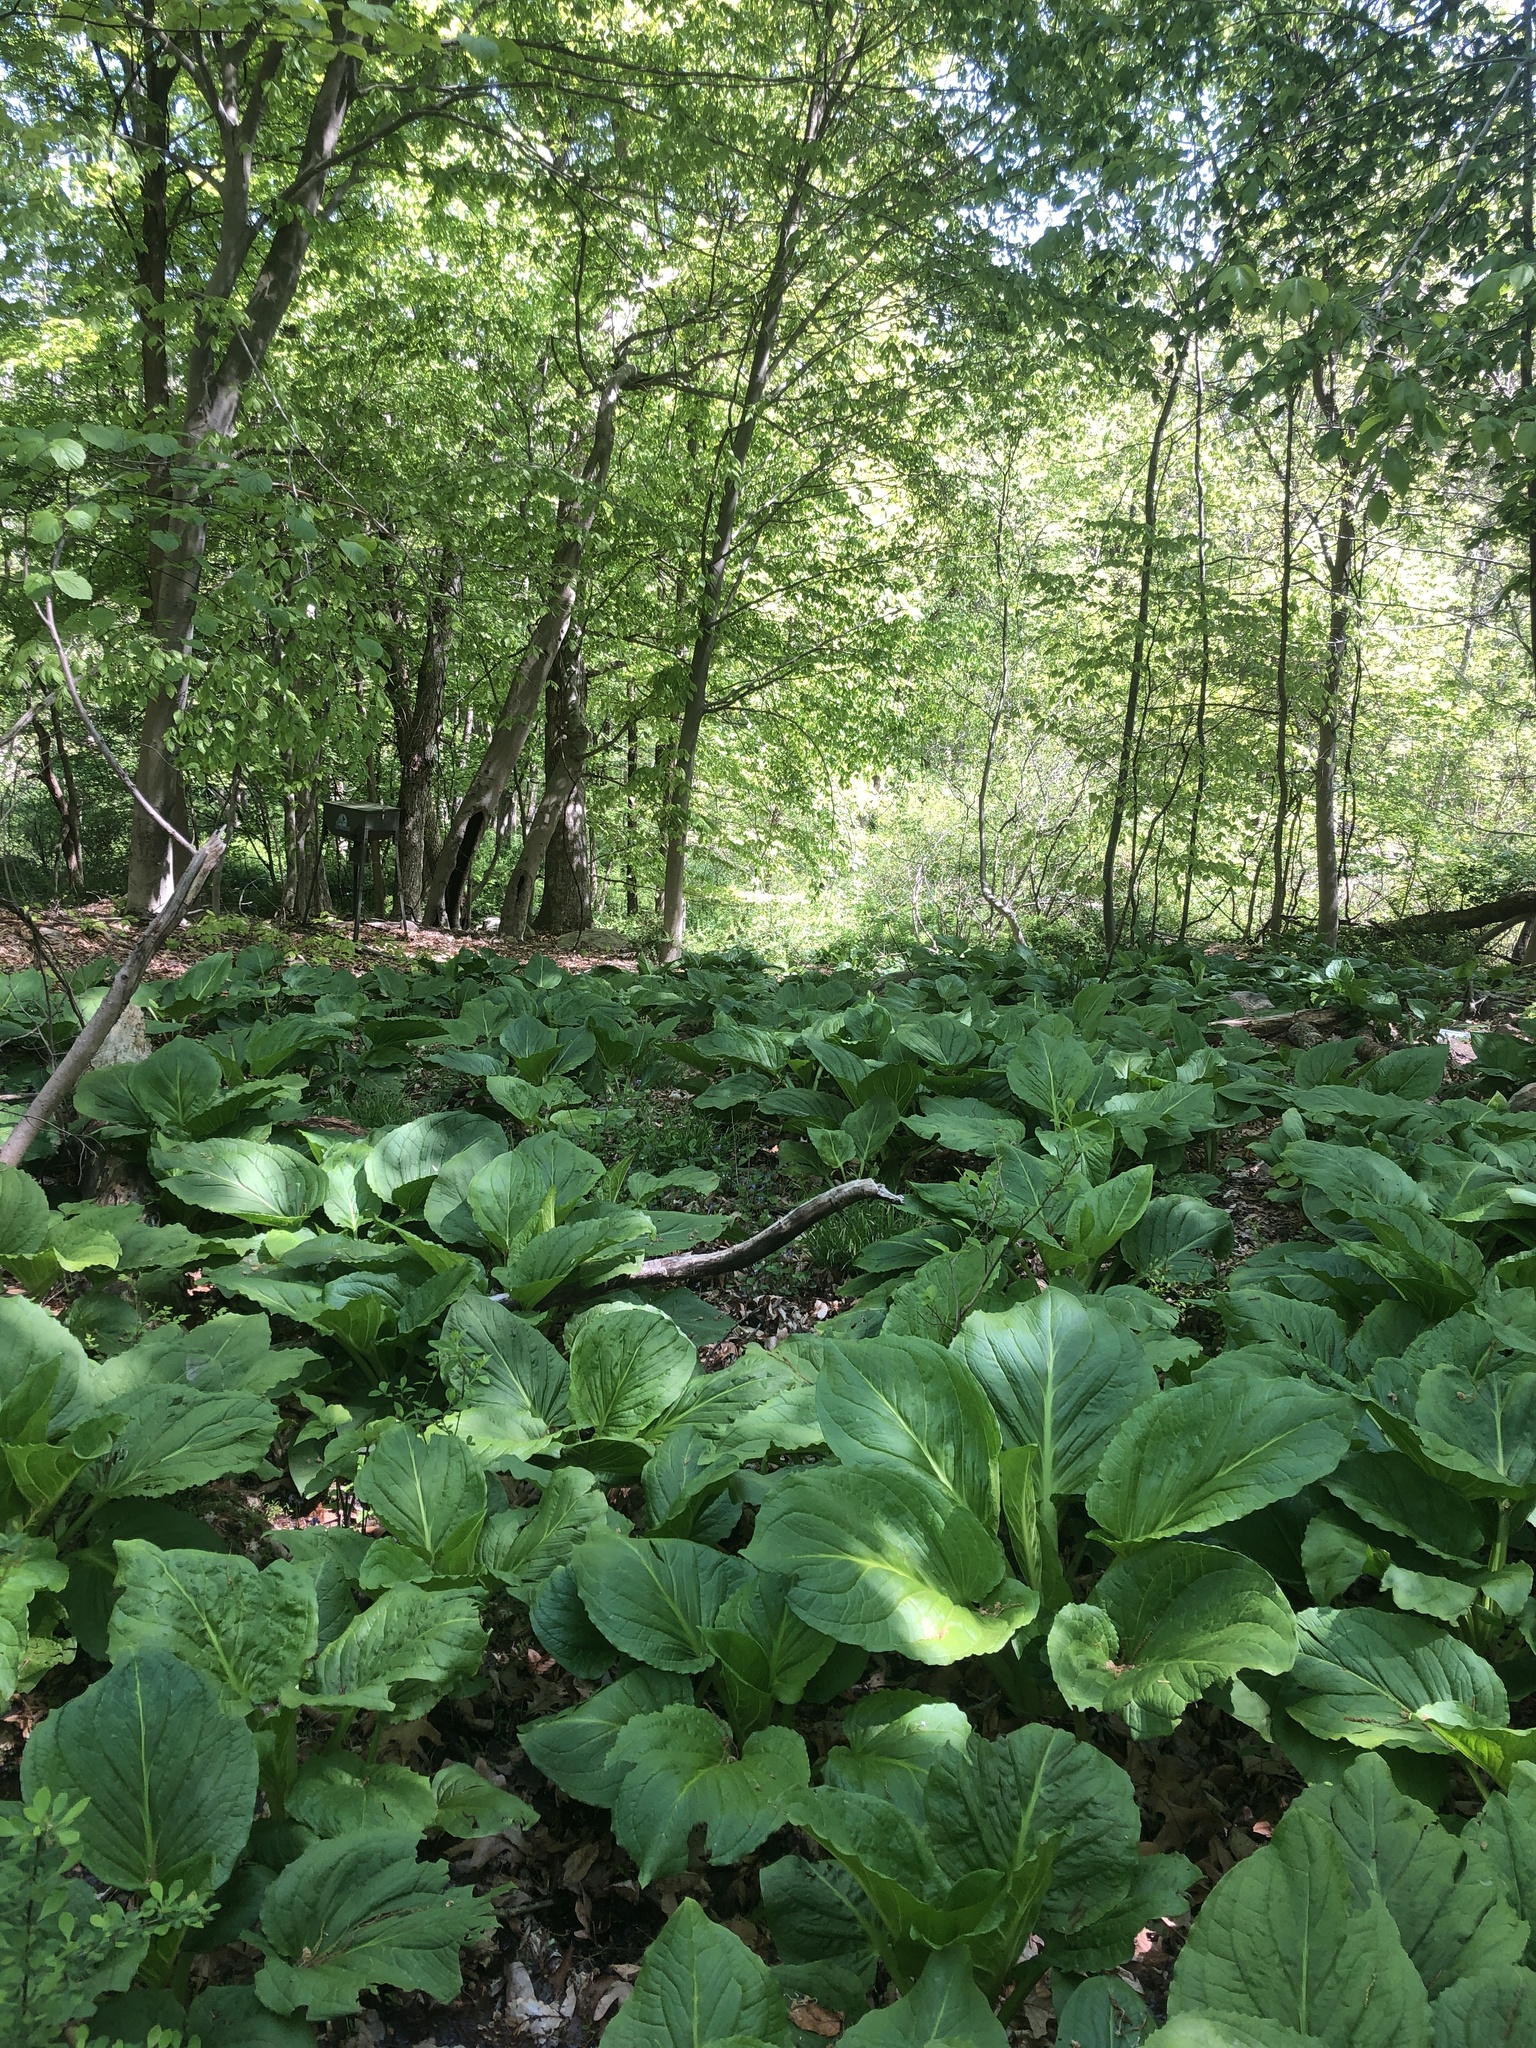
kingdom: Plantae
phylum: Tracheophyta
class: Liliopsida
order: Alismatales
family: Araceae
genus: Symplocarpus
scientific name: Symplocarpus foetidus
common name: Eastern skunk cabbage
